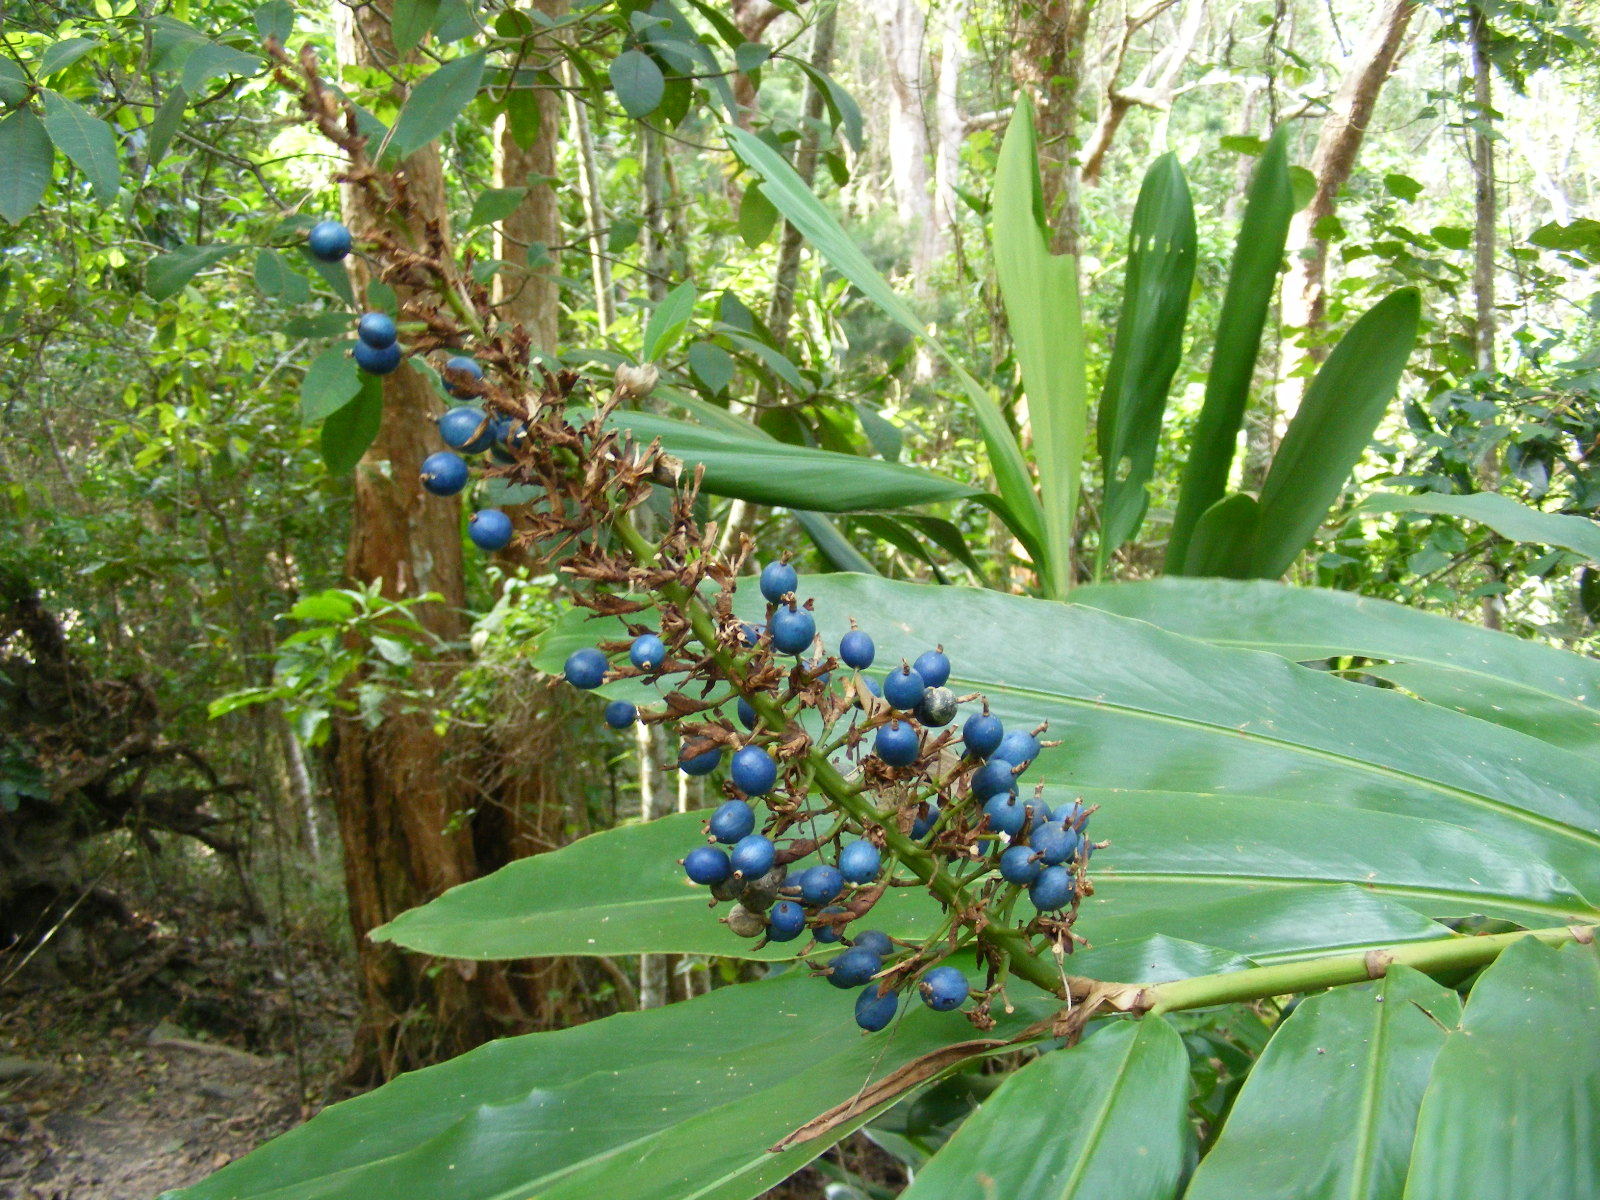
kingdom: Plantae
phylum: Tracheophyta
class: Liliopsida
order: Zingiberales
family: Zingiberaceae
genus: Alpinia
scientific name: Alpinia caerulea
